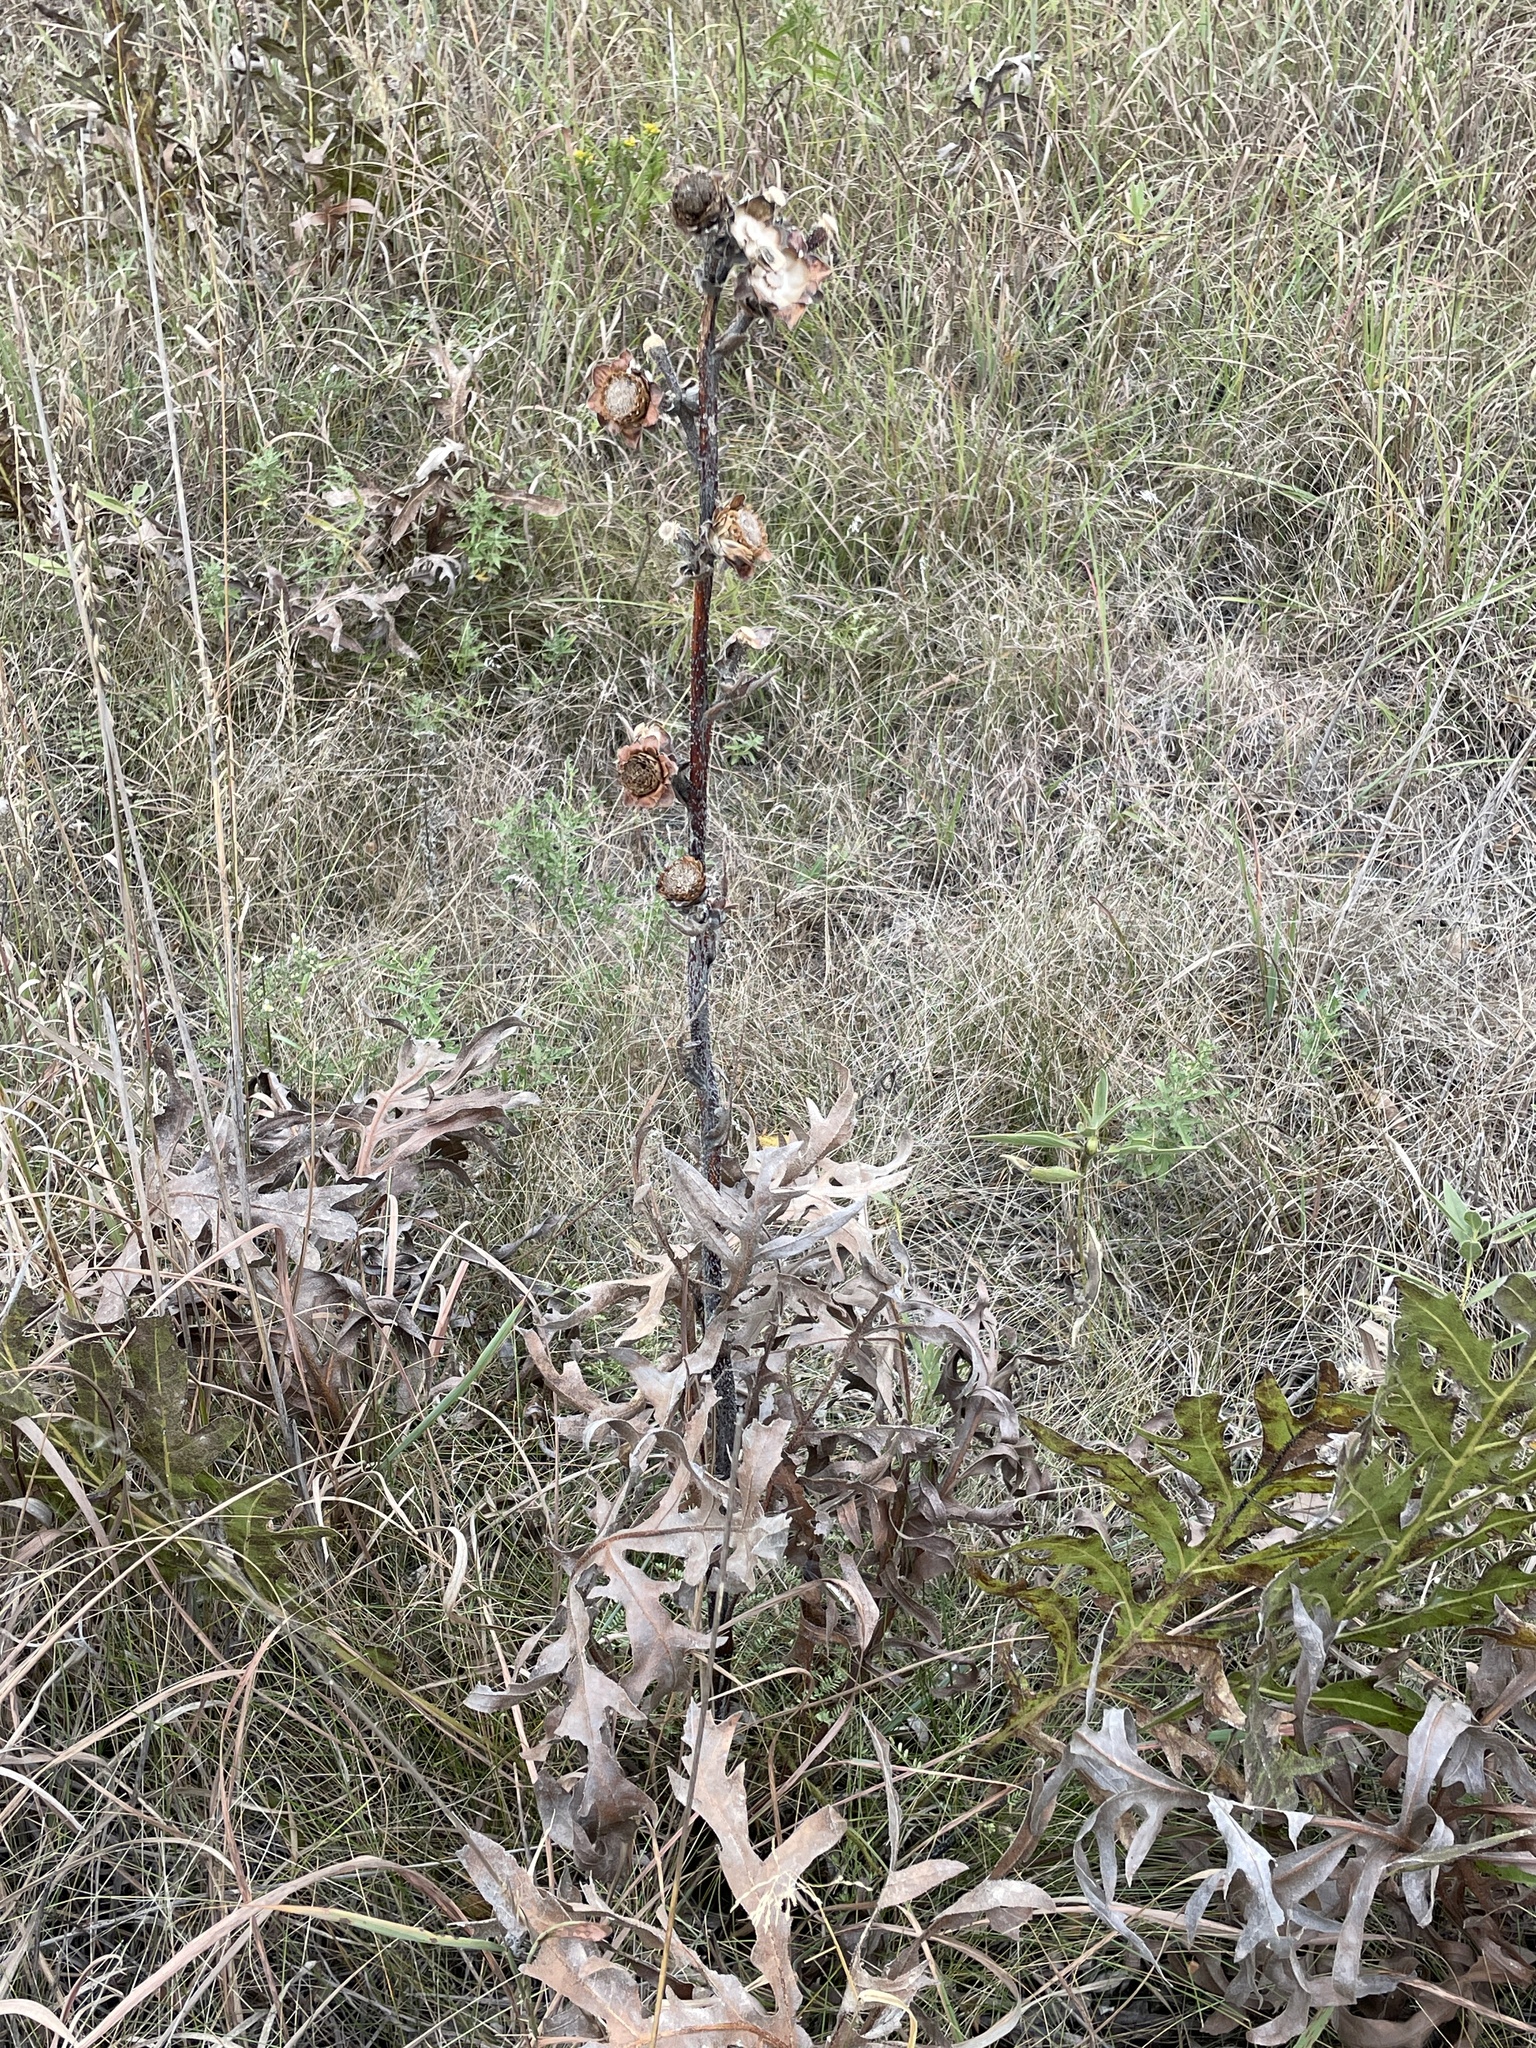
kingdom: Plantae
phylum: Tracheophyta
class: Magnoliopsida
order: Asterales
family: Asteraceae
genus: Silphium
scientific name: Silphium laciniatum
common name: Polarplant
